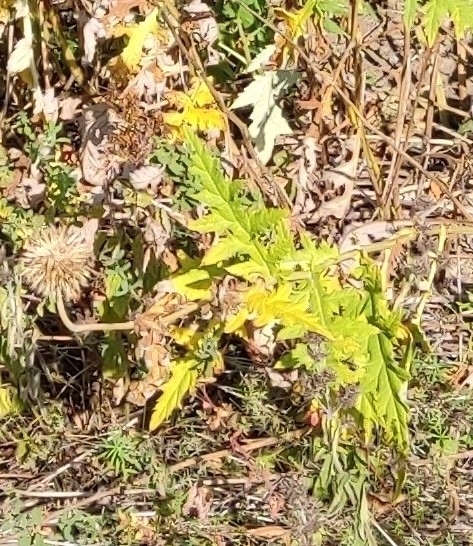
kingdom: Plantae
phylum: Tracheophyta
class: Magnoliopsida
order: Asterales
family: Asteraceae
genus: Echinops
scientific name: Echinops sphaerocephalus
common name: Glandular globe-thistle
